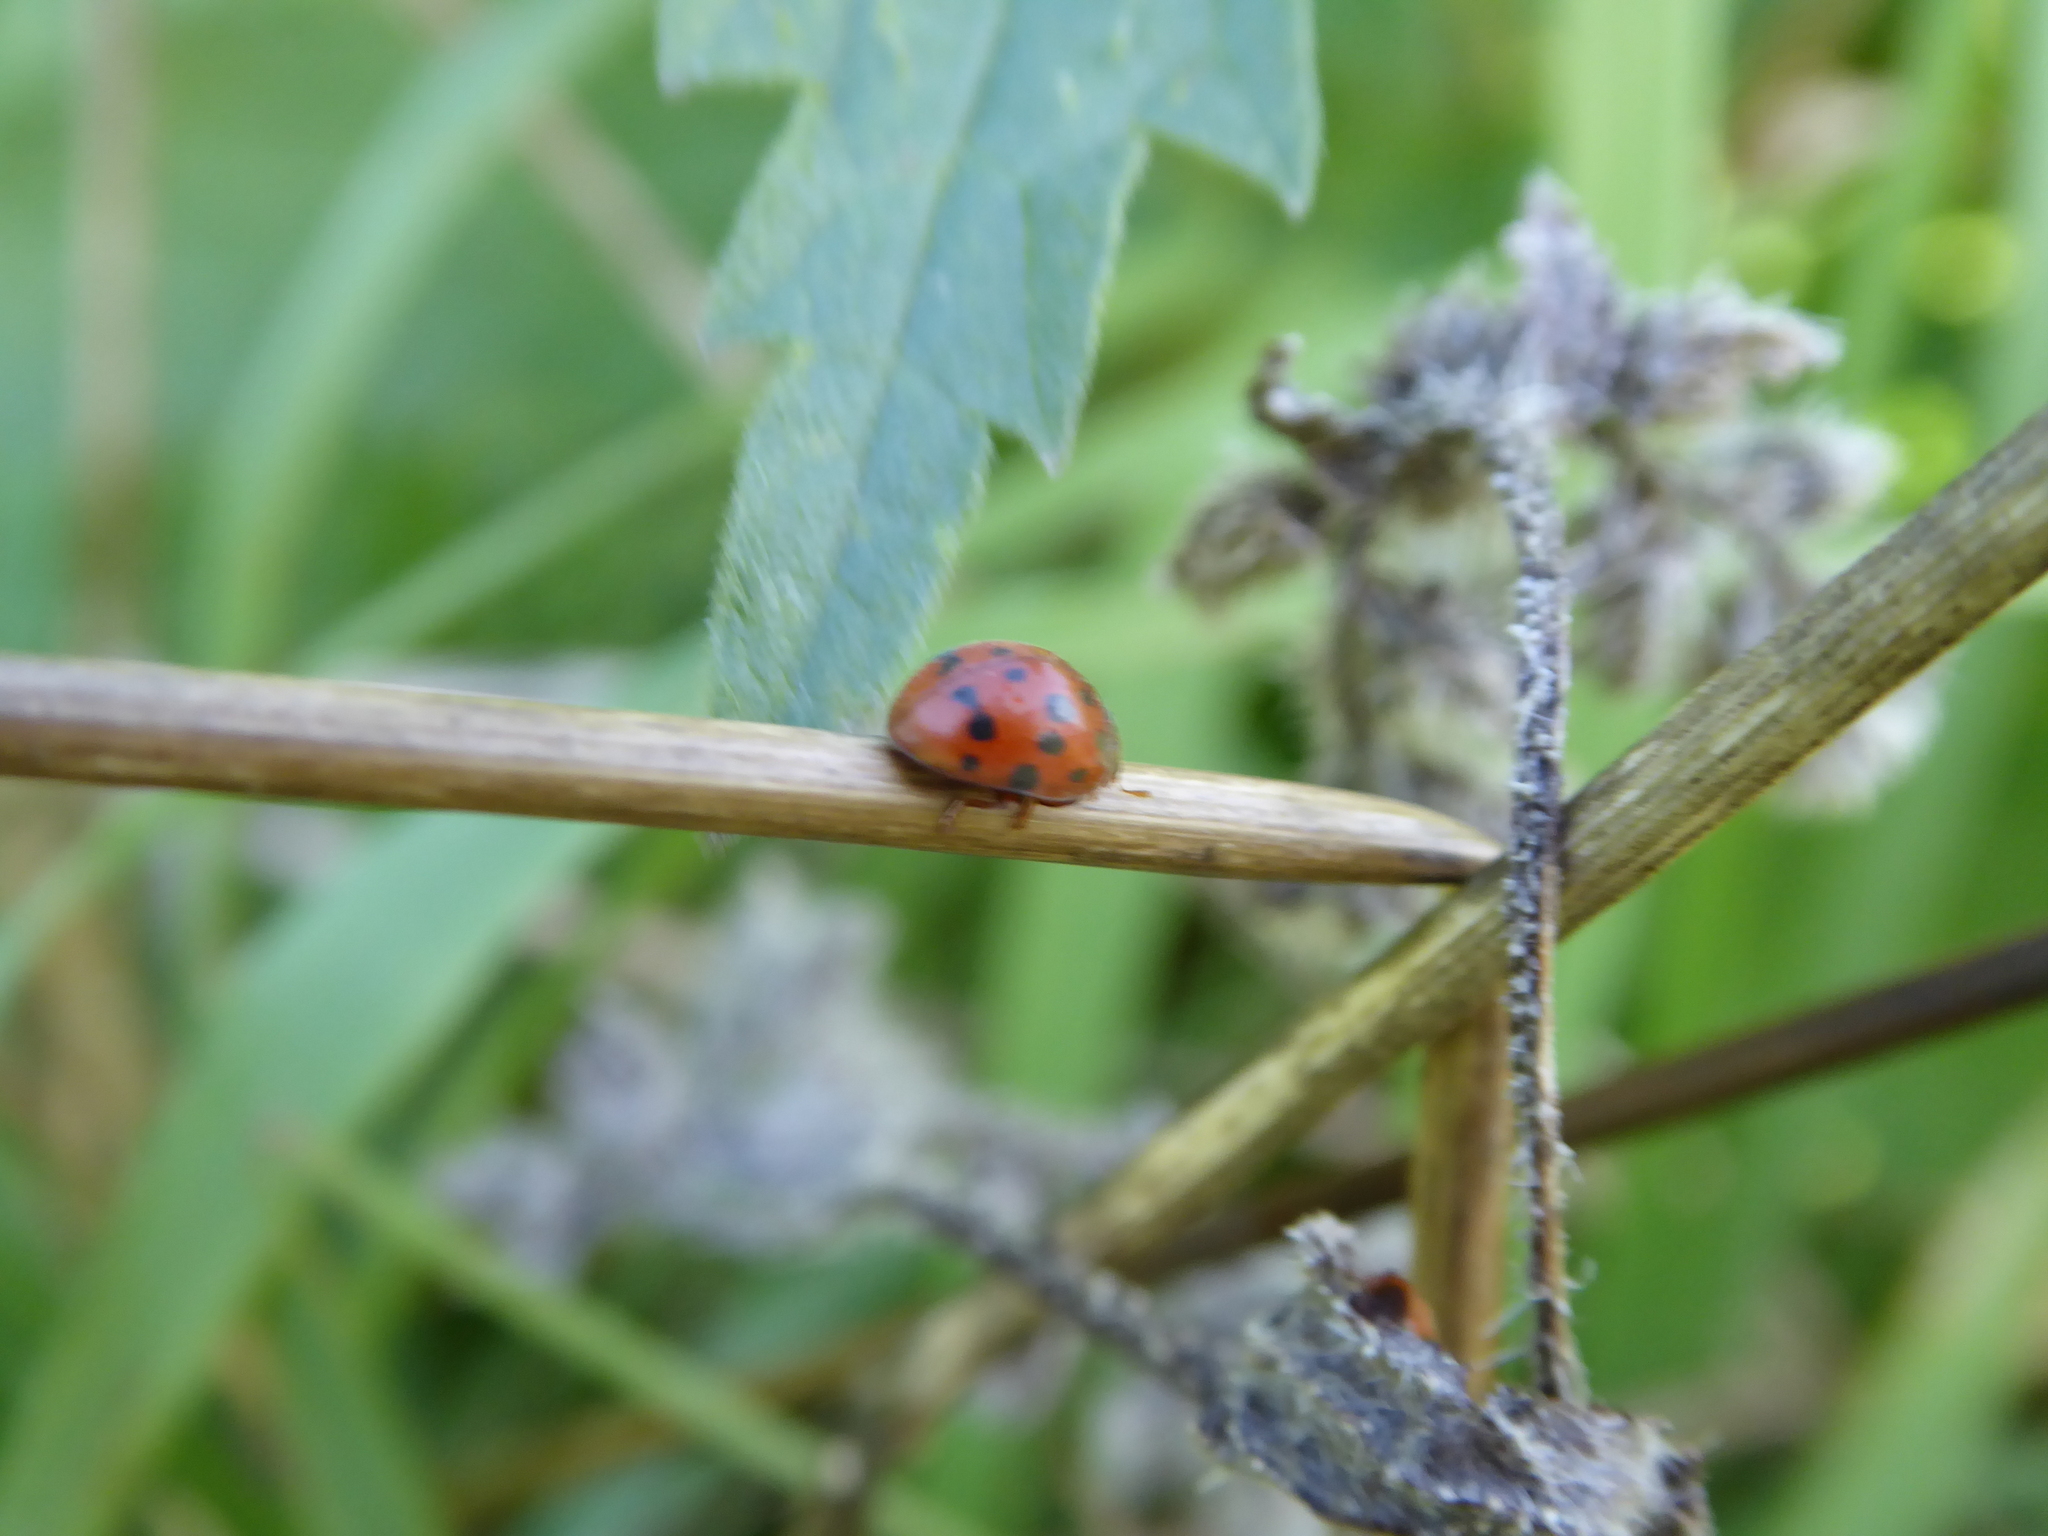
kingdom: Animalia
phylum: Arthropoda
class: Insecta
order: Coleoptera
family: Coccinellidae
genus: Subcoccinella
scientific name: Subcoccinella vigintiquatuorpunctata
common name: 24-spot ladybird
